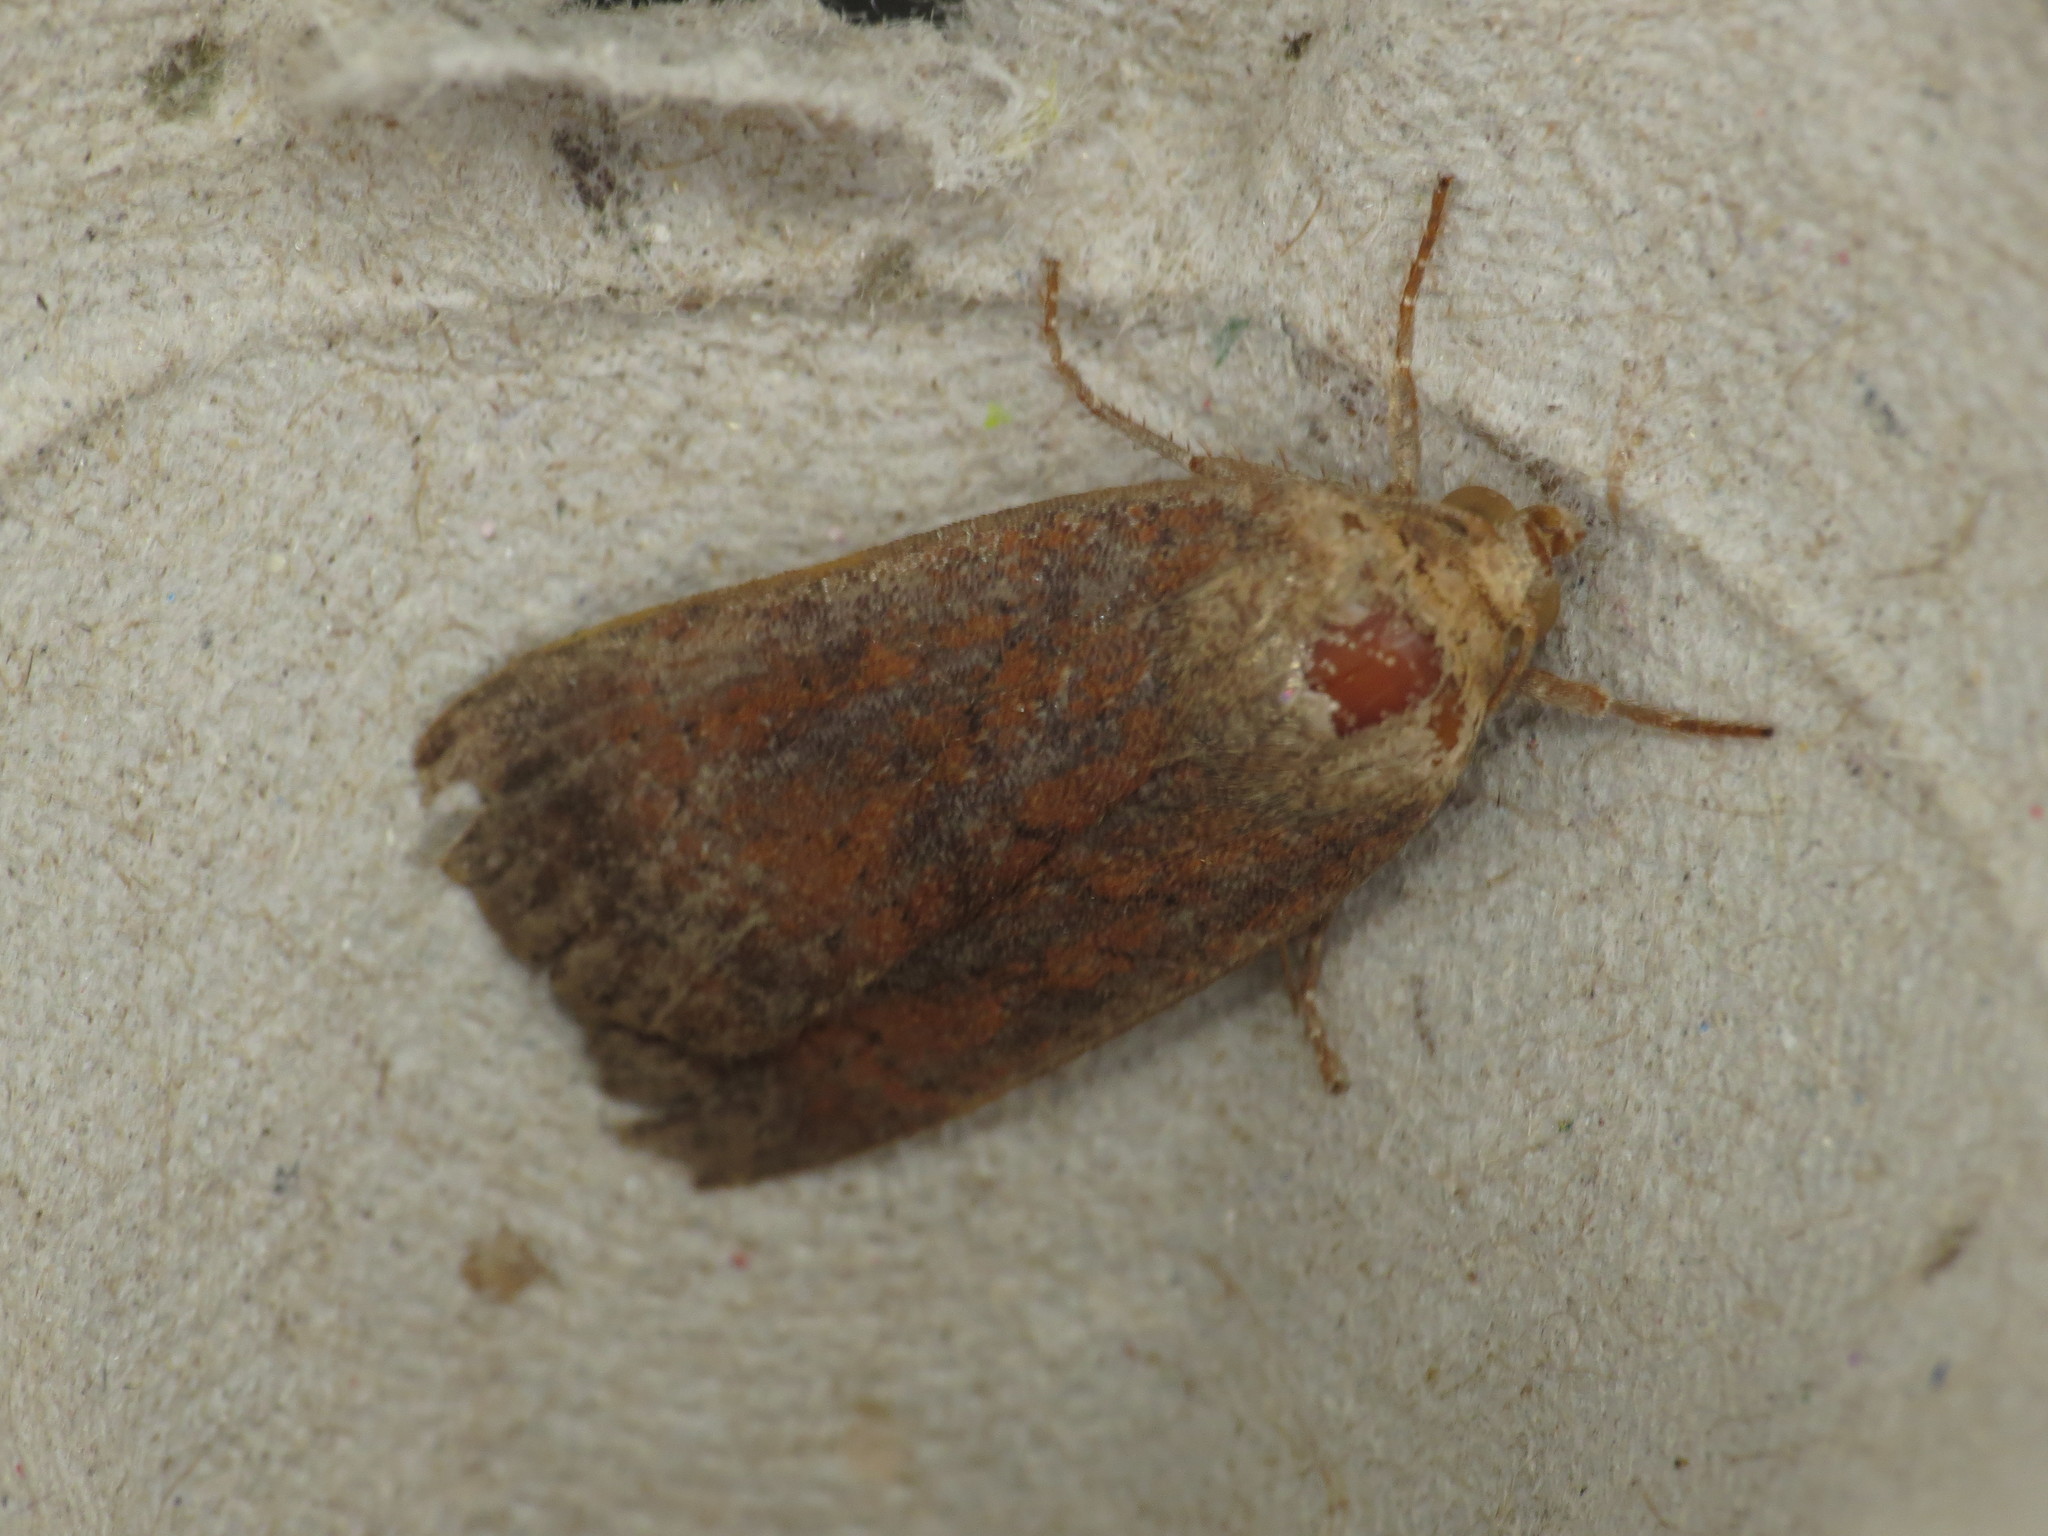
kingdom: Animalia
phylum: Arthropoda
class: Insecta
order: Lepidoptera
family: Noctuidae
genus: Noctua
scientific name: Noctua interjecta
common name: Least yellow underwing
